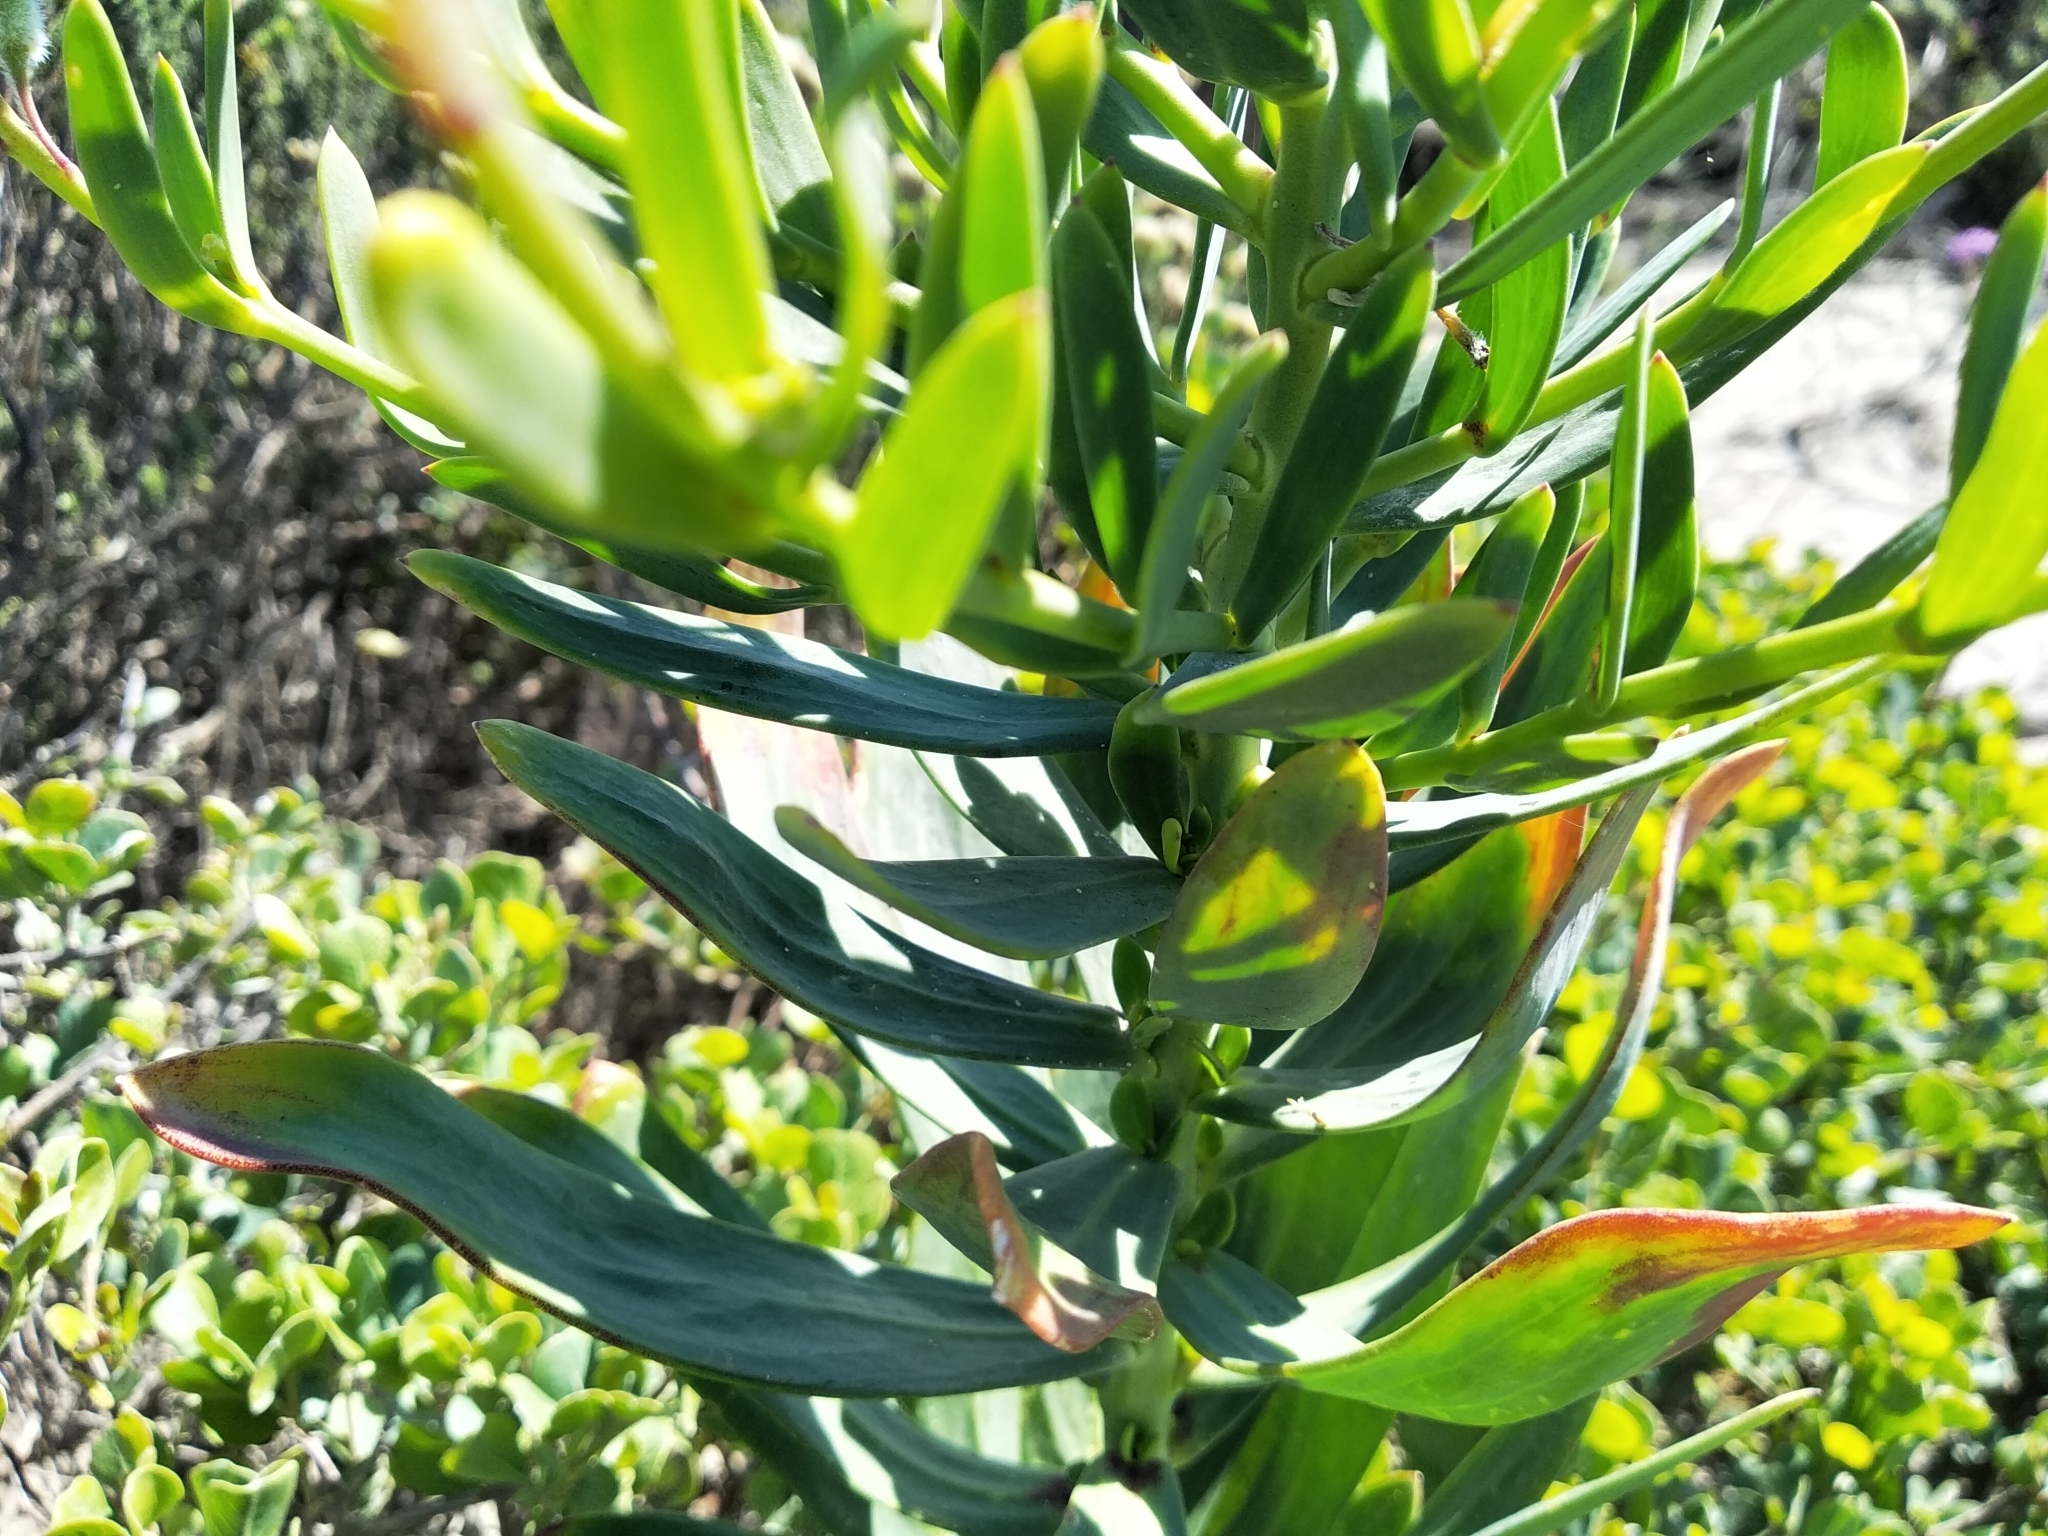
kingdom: Plantae
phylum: Tracheophyta
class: Magnoliopsida
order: Brassicales
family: Brassicaceae
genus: Heliophila
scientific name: Heliophila linearis
